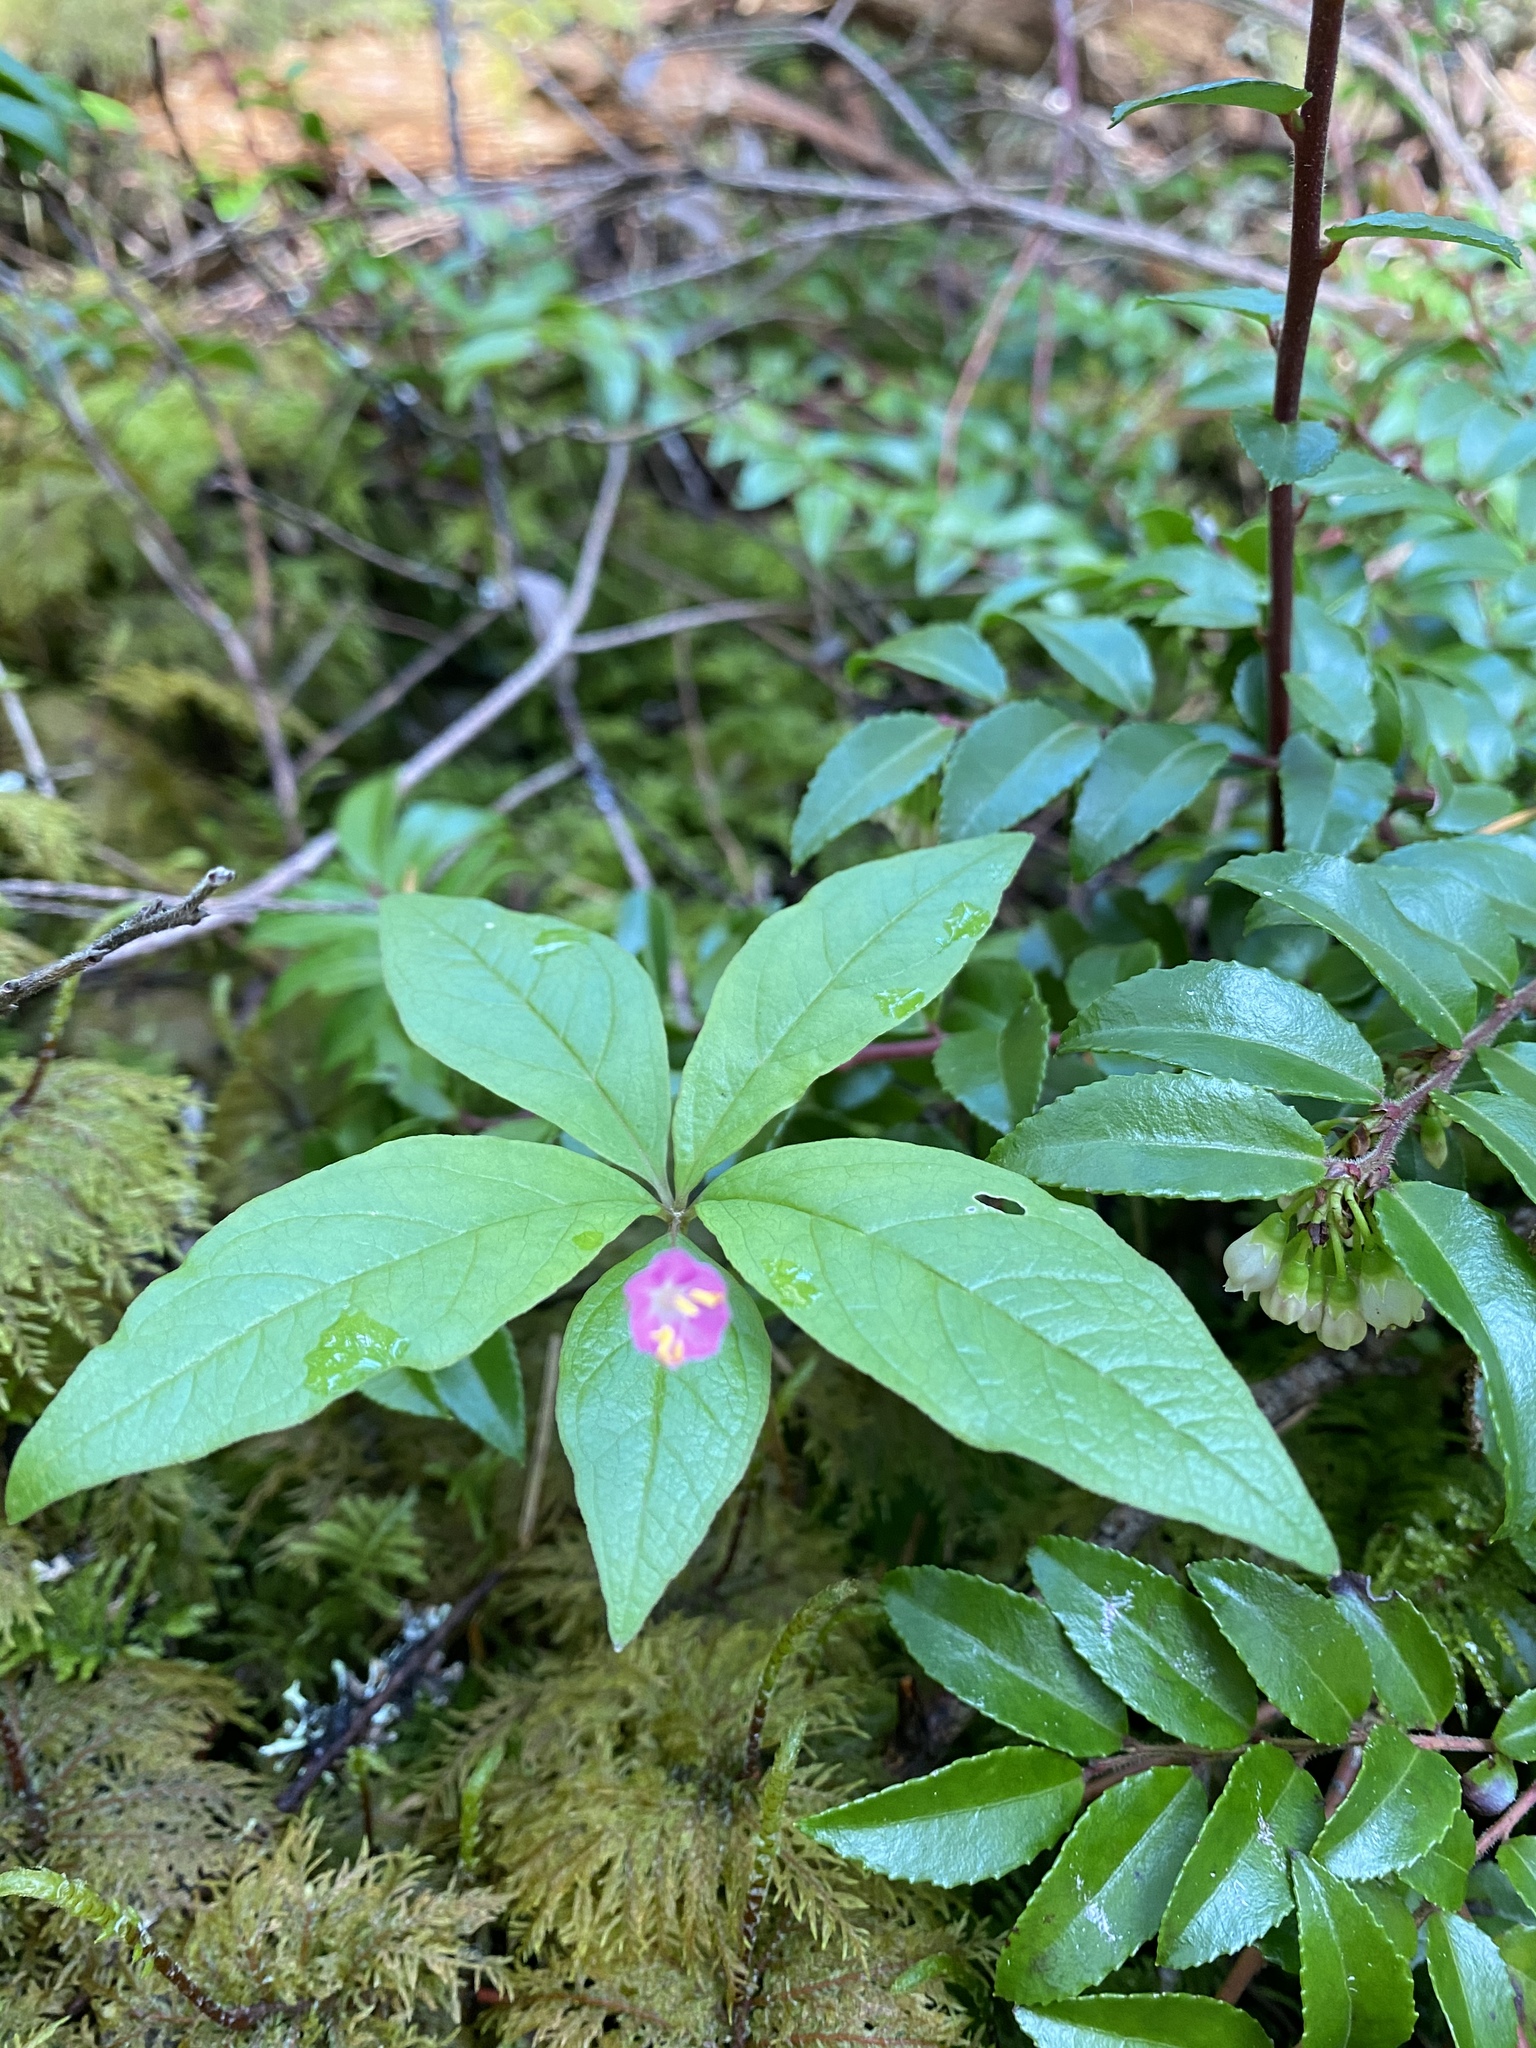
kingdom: Plantae
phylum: Tracheophyta
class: Magnoliopsida
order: Ericales
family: Primulaceae
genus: Lysimachia
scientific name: Lysimachia latifolia
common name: Pacific starflower
